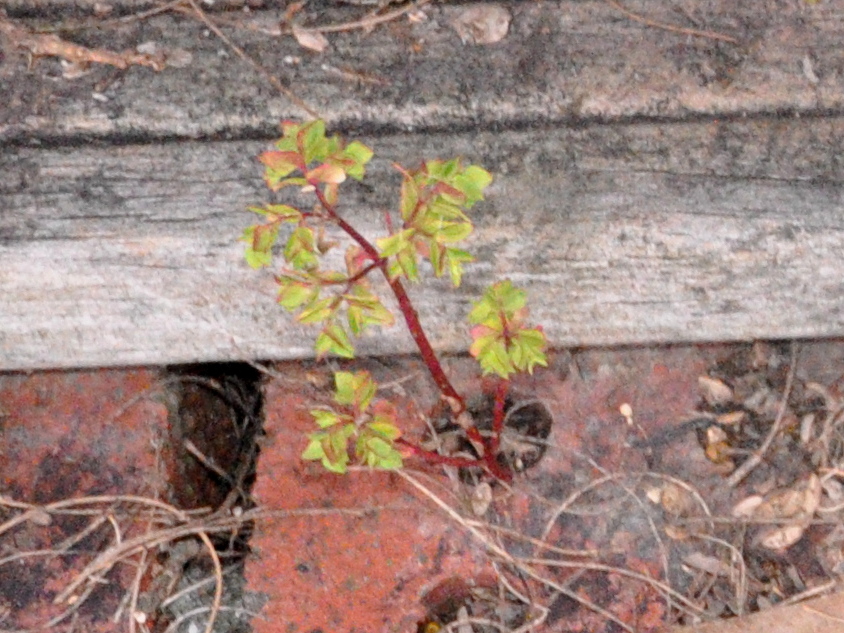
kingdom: Plantae
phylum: Tracheophyta
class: Magnoliopsida
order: Malpighiales
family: Euphorbiaceae
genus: Euphorbia
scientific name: Euphorbia peplus
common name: Petty spurge
